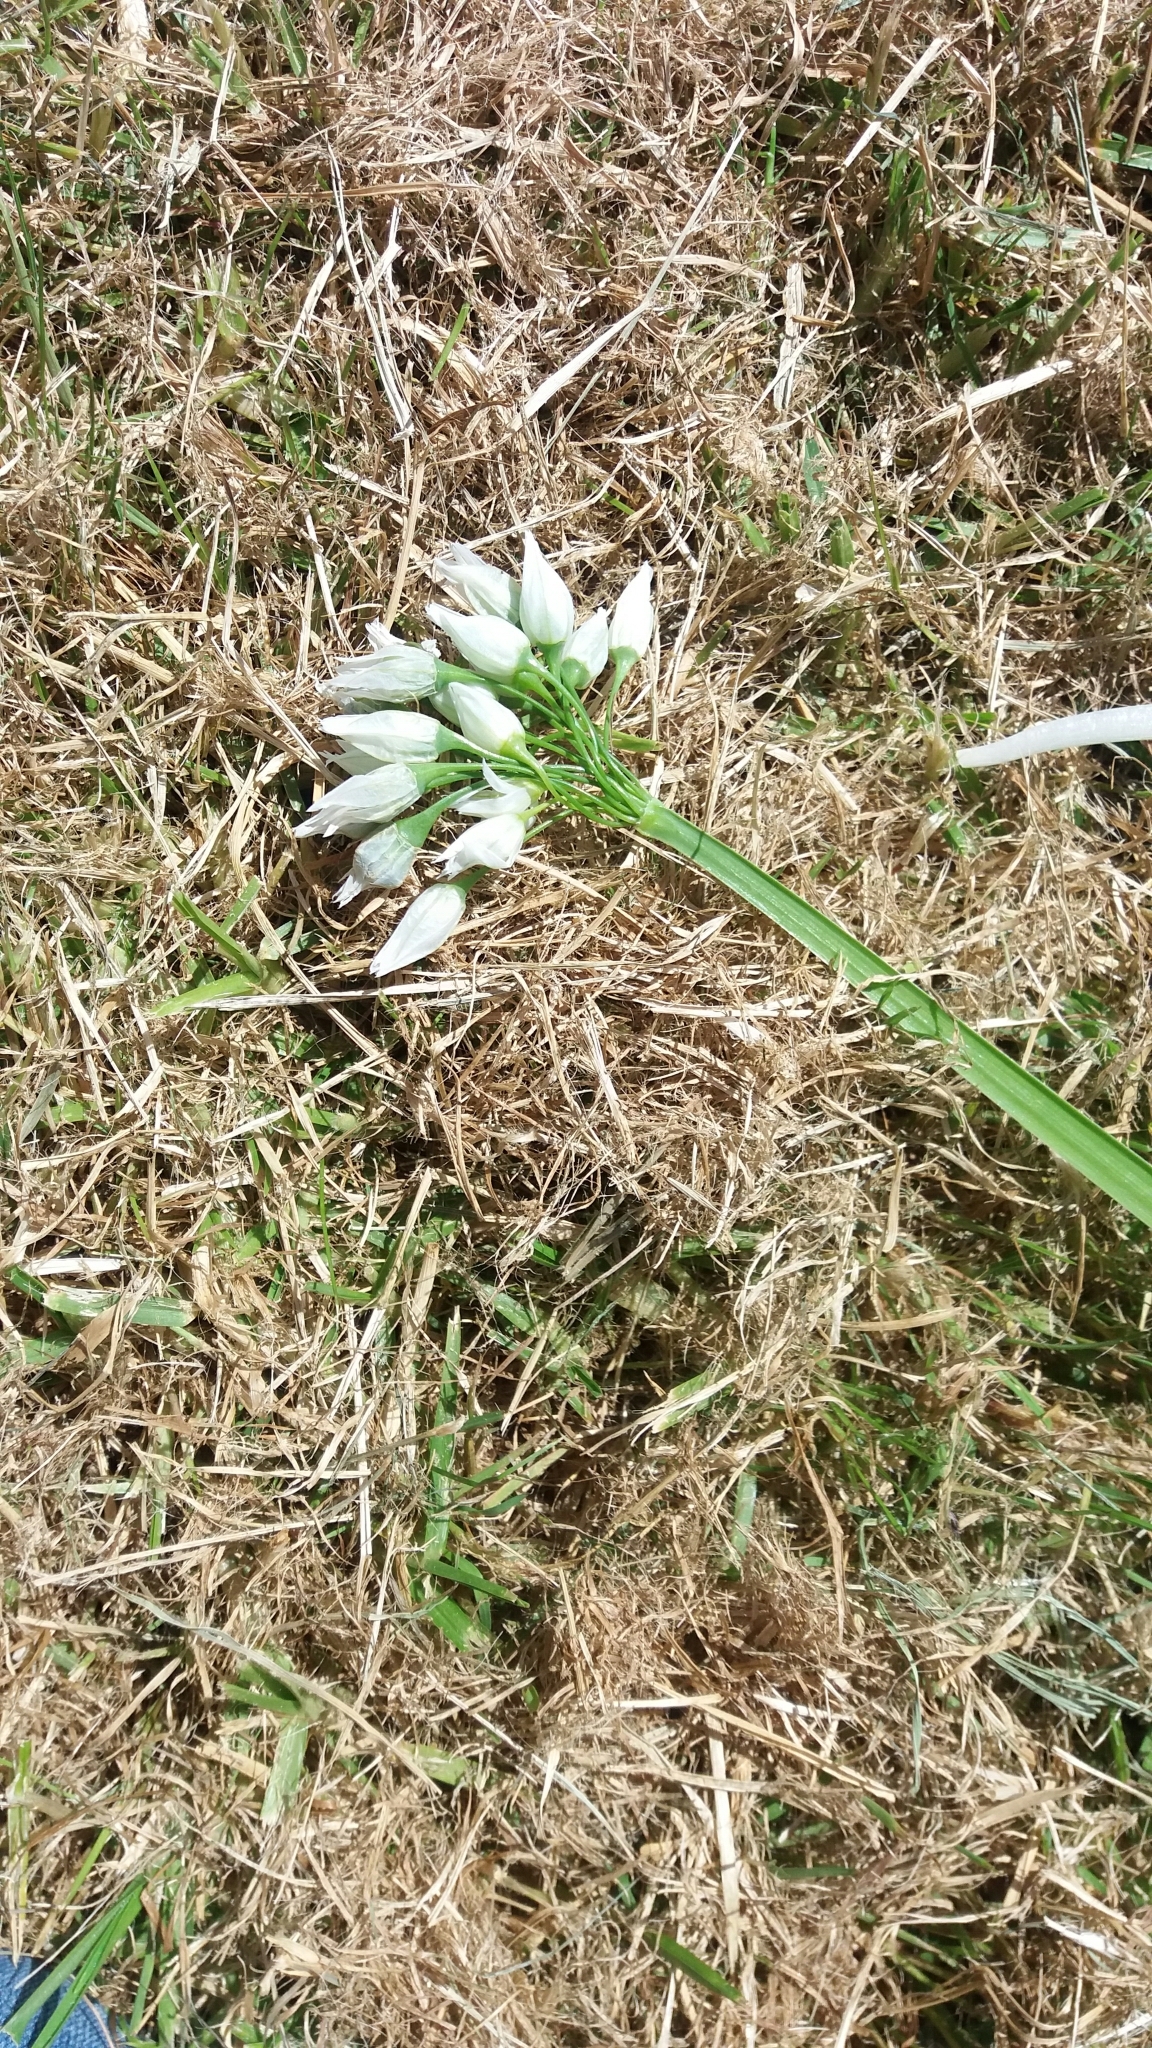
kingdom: Plantae
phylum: Tracheophyta
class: Liliopsida
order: Asparagales
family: Amaryllidaceae
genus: Allium
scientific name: Allium triquetrum
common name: Three-cornered garlic
